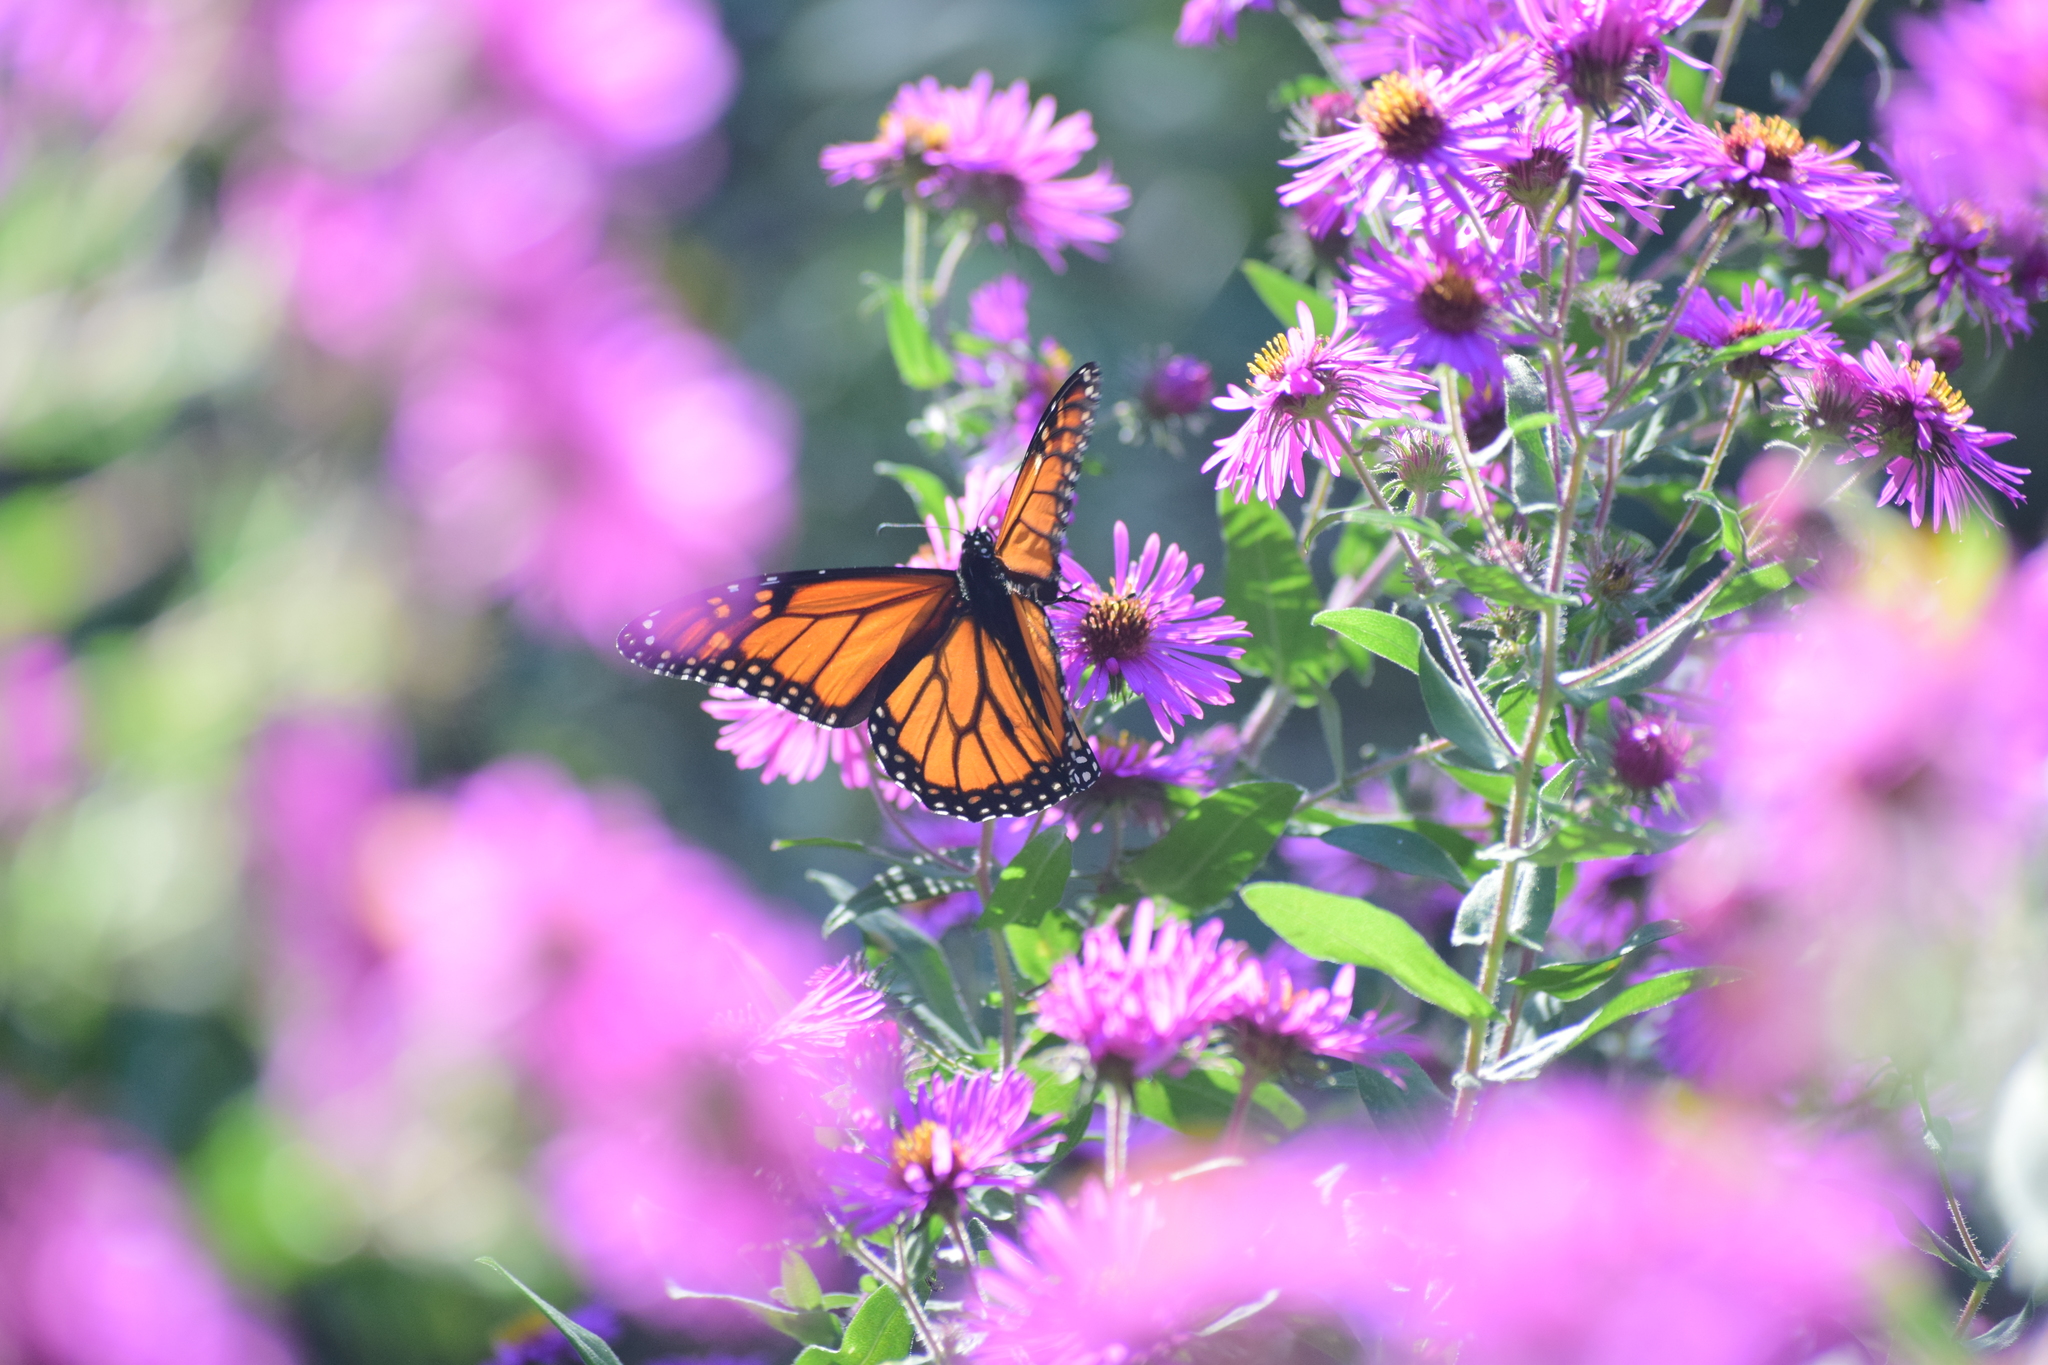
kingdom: Animalia
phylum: Arthropoda
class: Insecta
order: Lepidoptera
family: Nymphalidae
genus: Danaus
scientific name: Danaus plexippus
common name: Monarch
